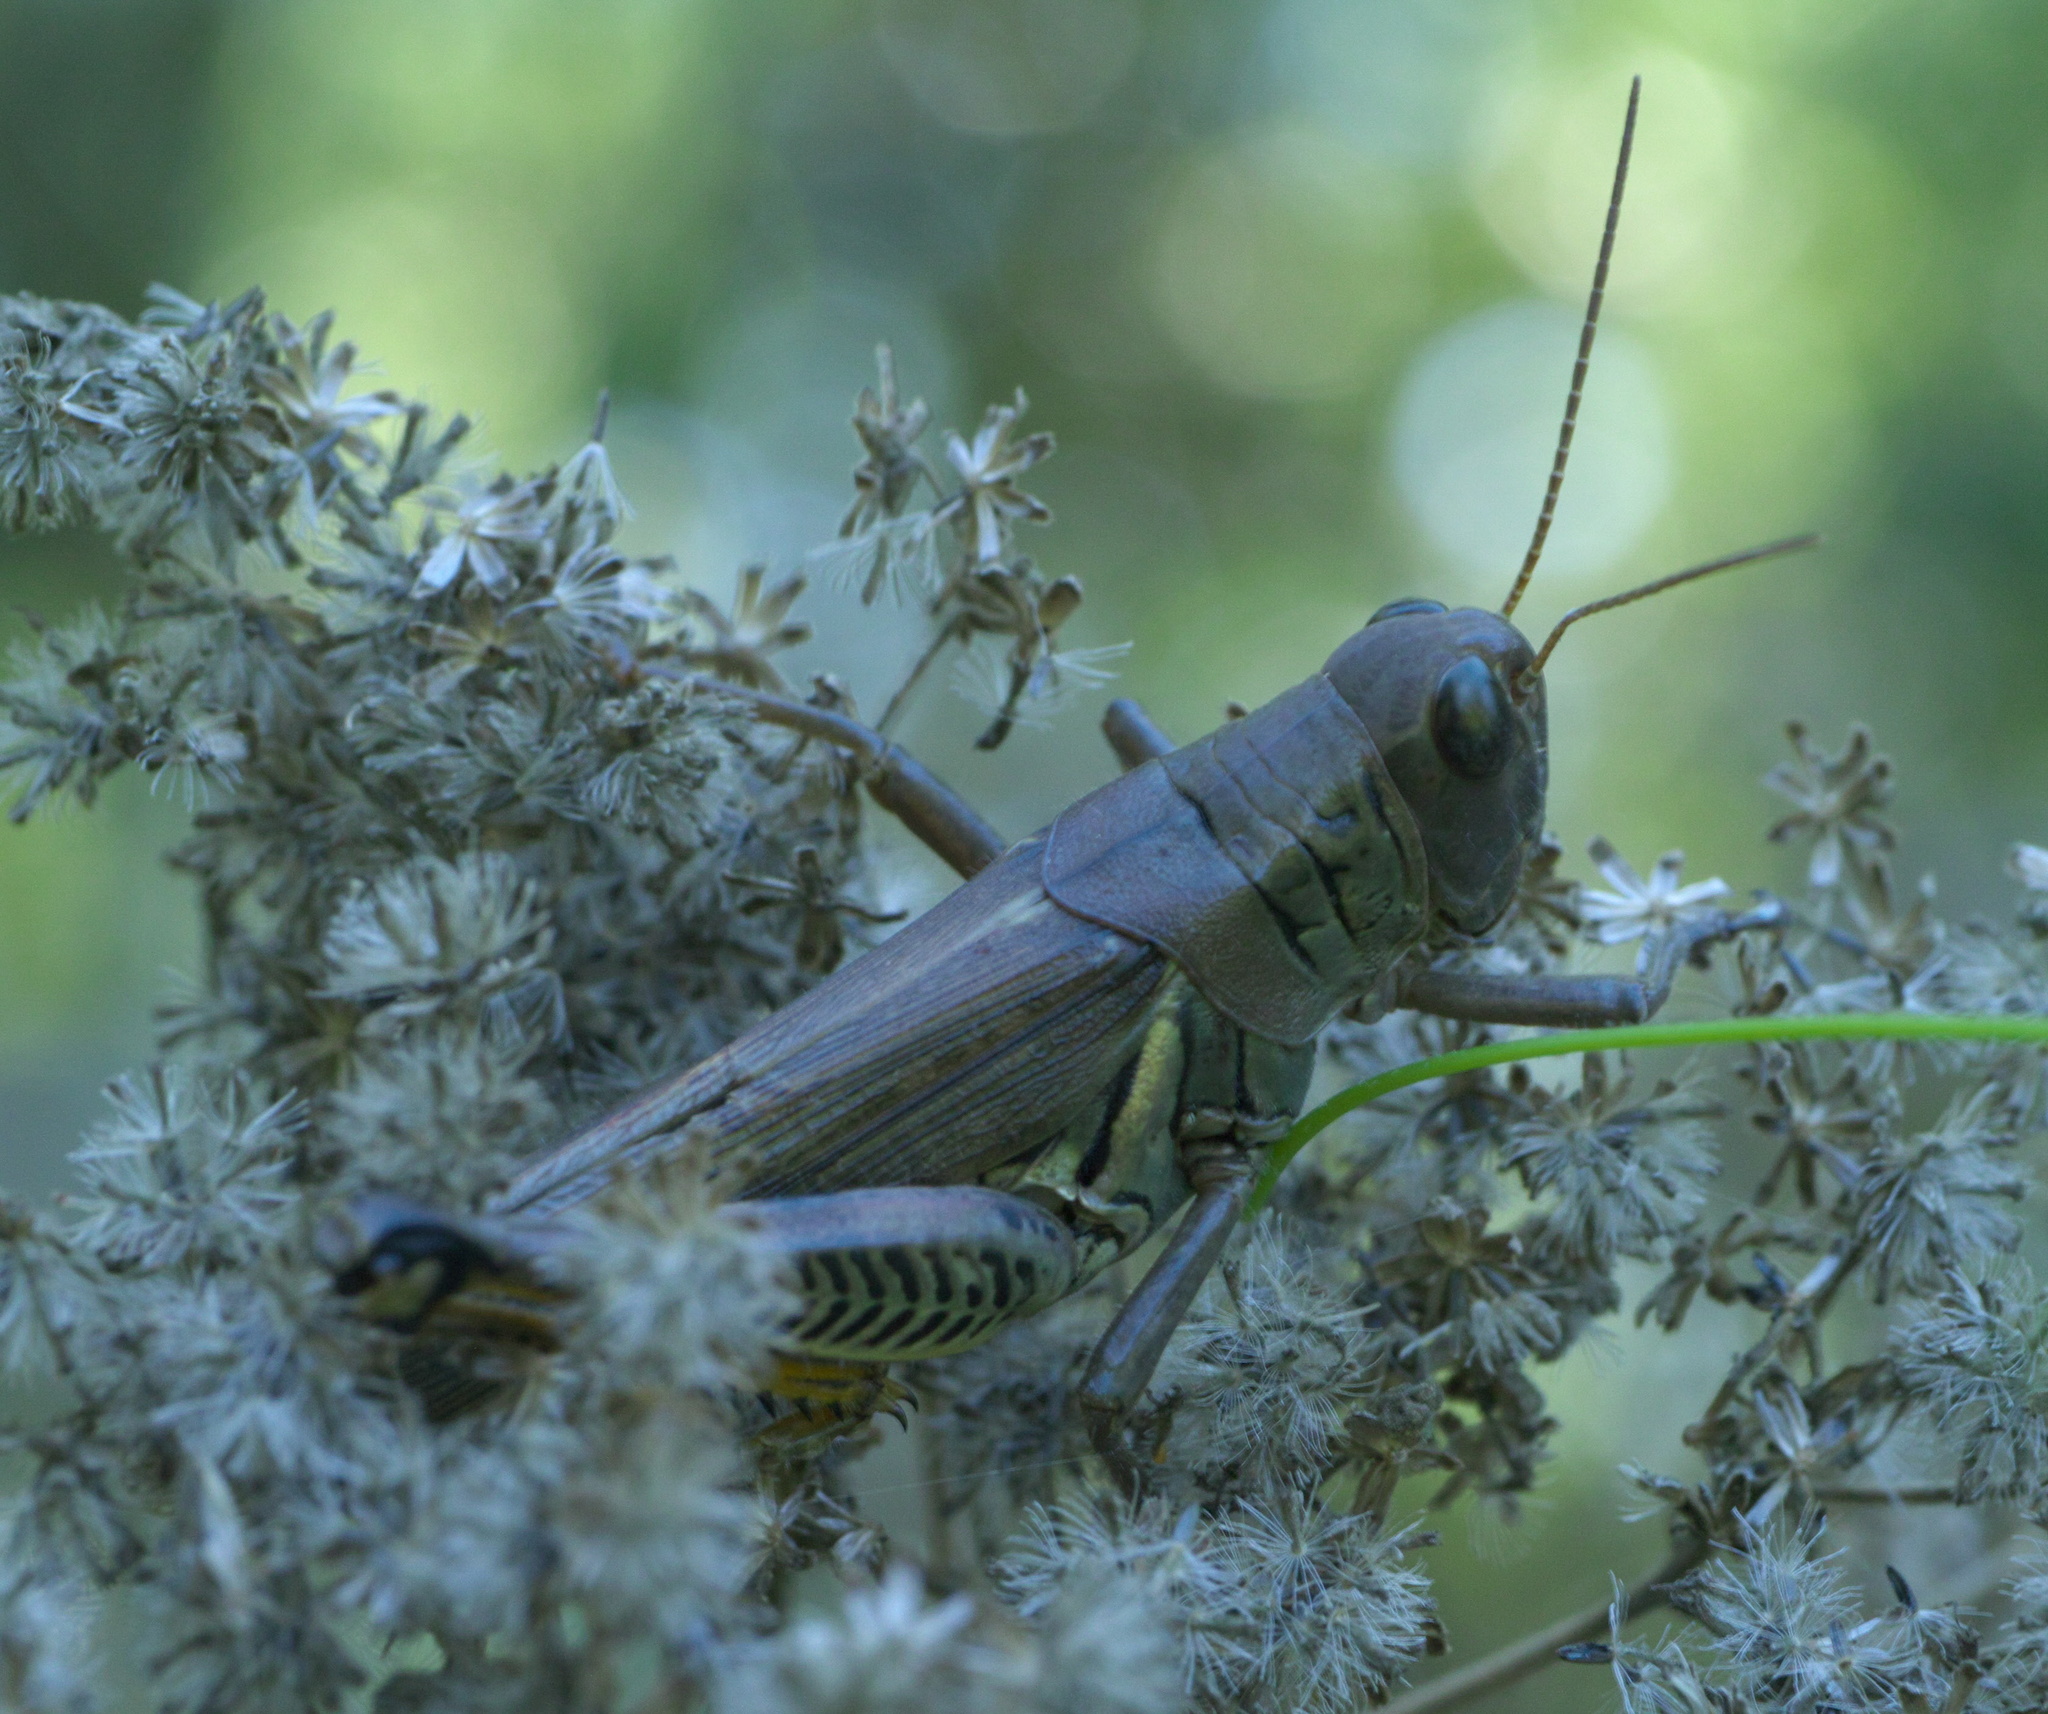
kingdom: Animalia
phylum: Arthropoda
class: Insecta
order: Orthoptera
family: Acrididae
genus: Melanoplus
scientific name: Melanoplus differentialis
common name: Differential grasshopper
